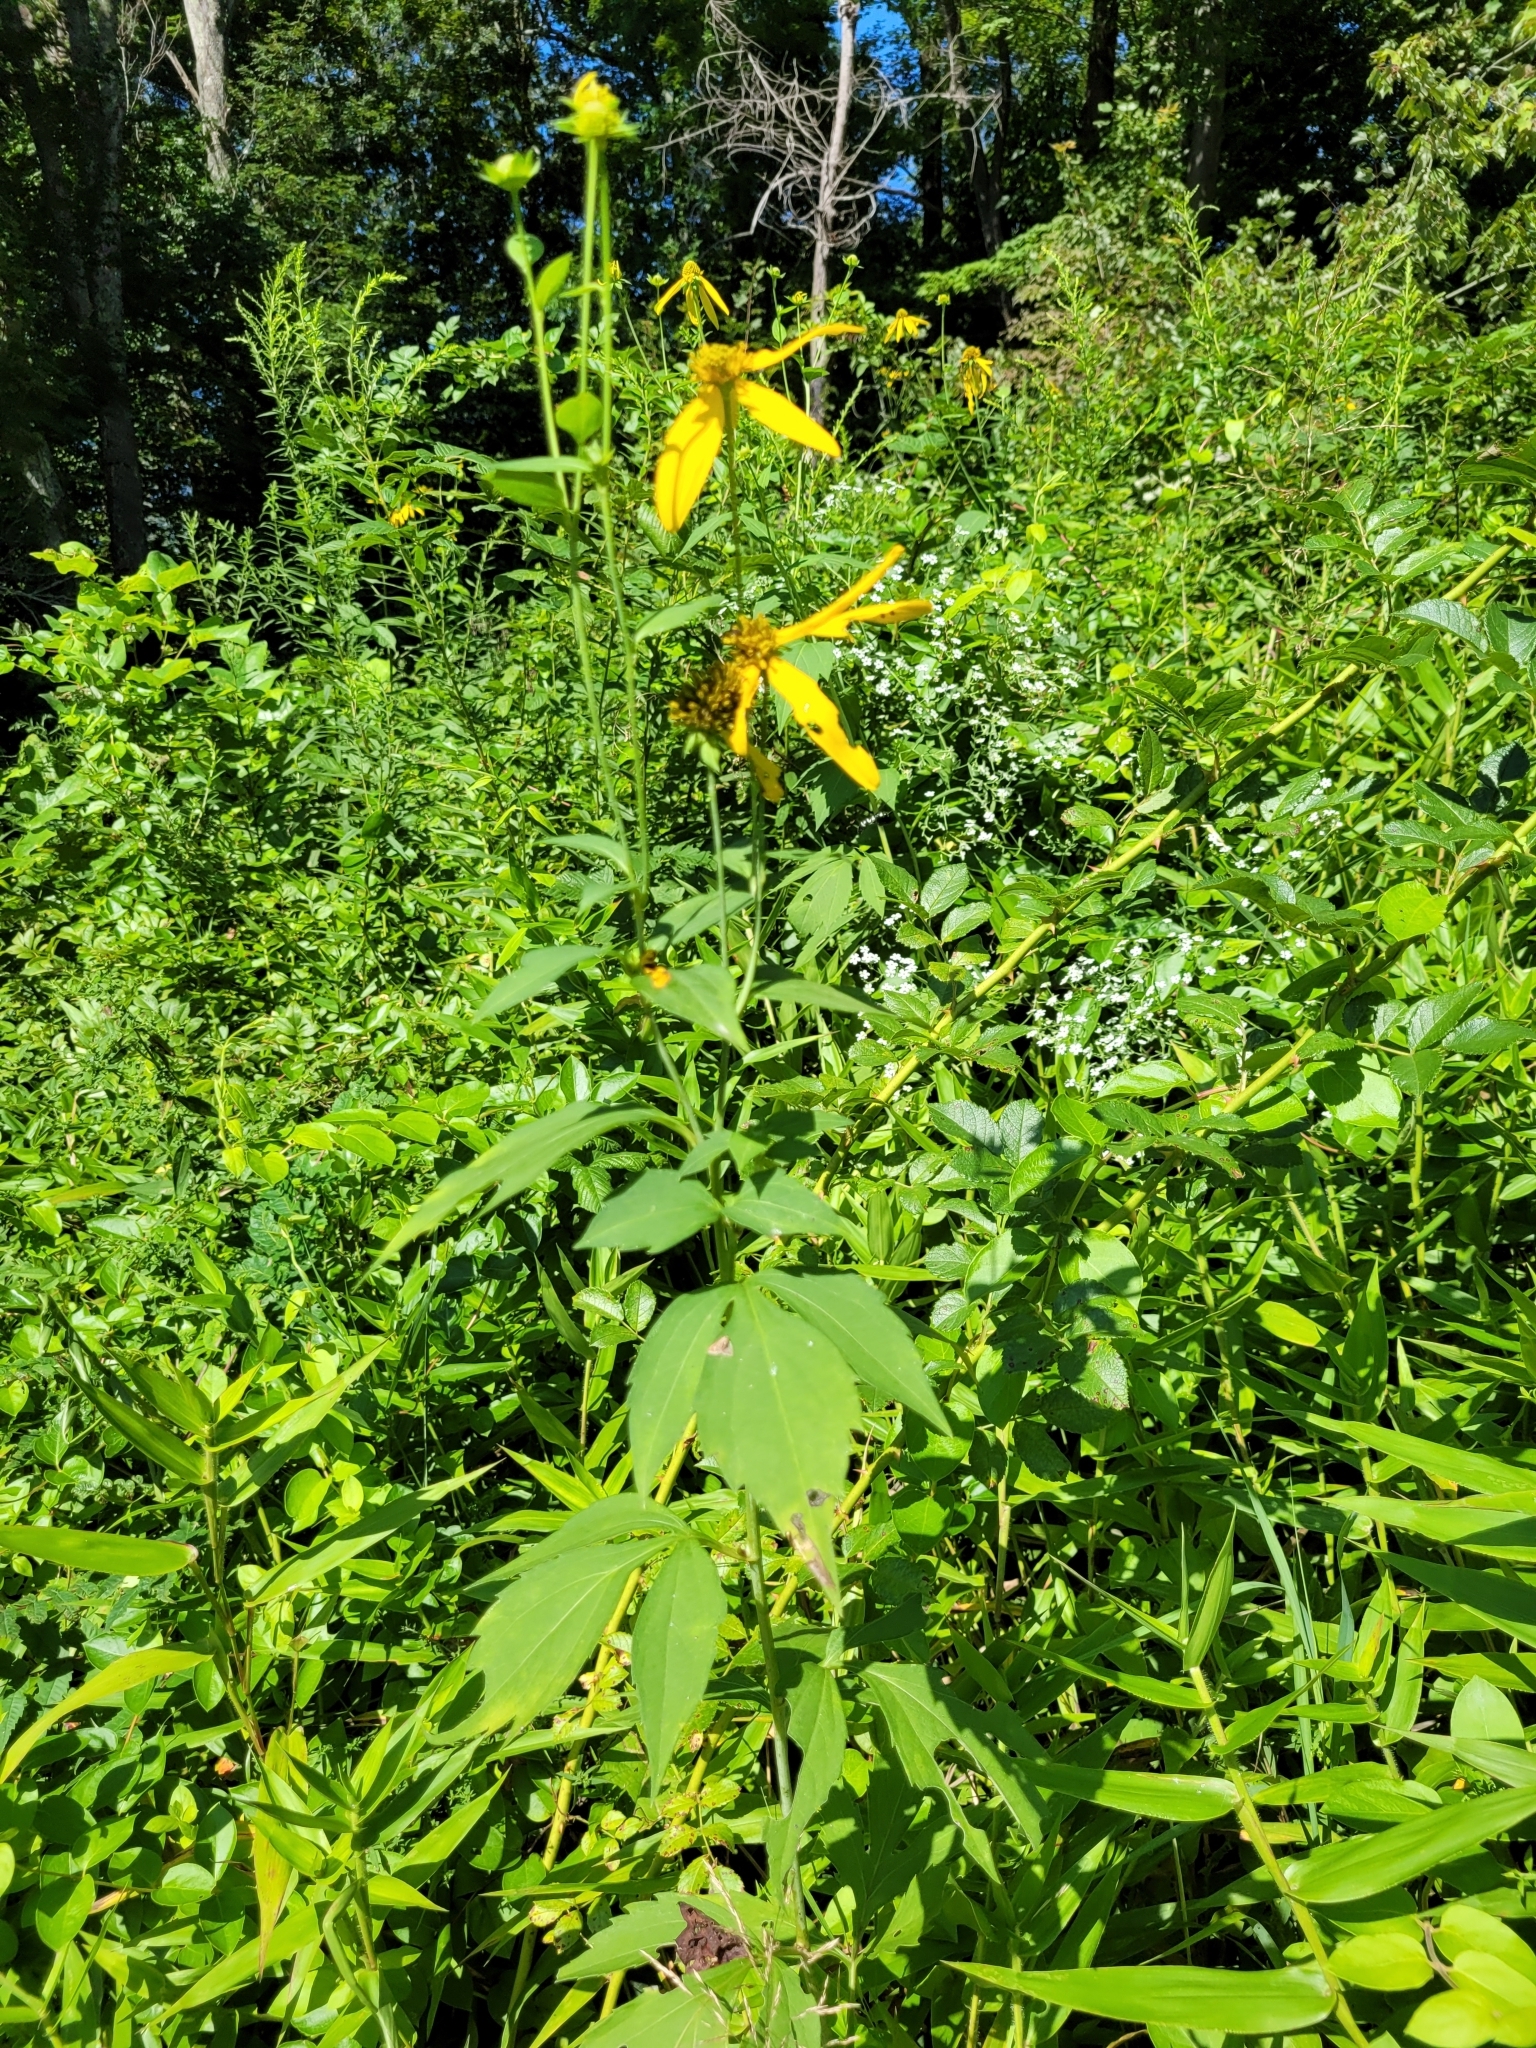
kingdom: Plantae
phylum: Tracheophyta
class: Magnoliopsida
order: Asterales
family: Asteraceae
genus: Rudbeckia
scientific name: Rudbeckia laciniata
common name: Coneflower
